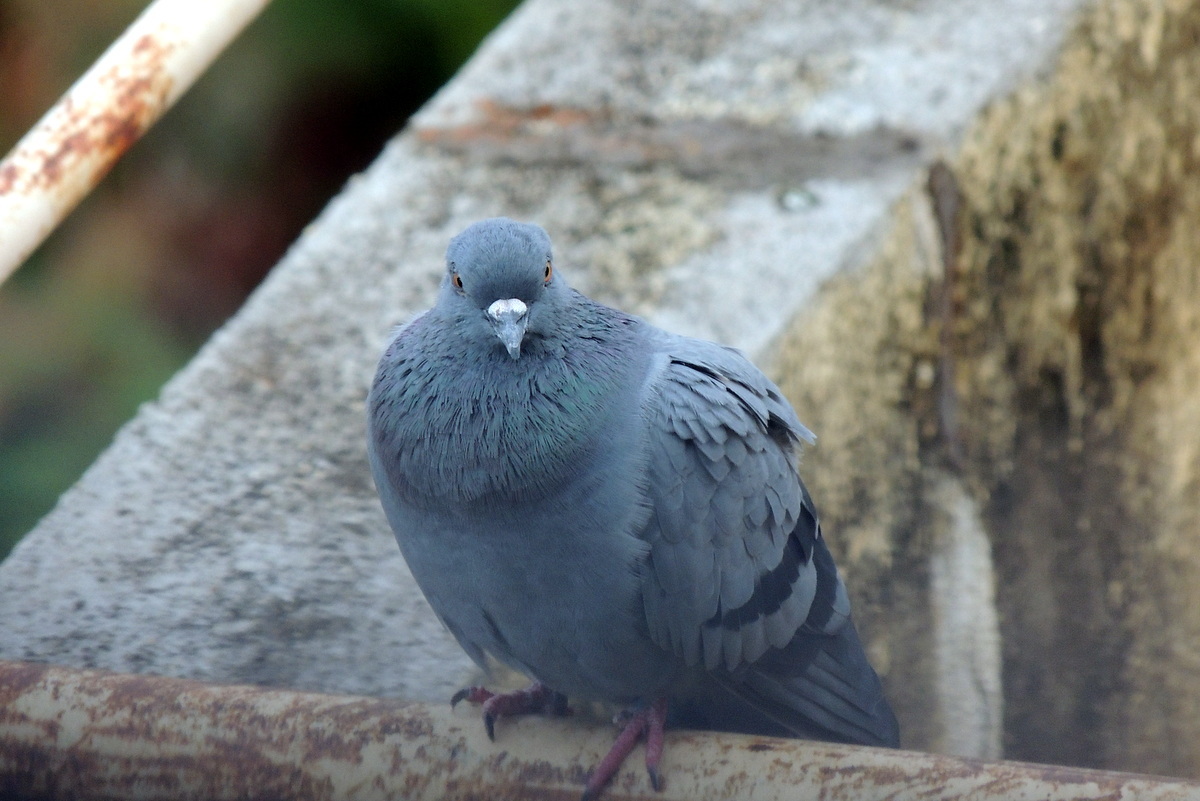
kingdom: Animalia
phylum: Chordata
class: Aves
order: Columbiformes
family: Columbidae
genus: Columba
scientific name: Columba livia
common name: Rock pigeon
